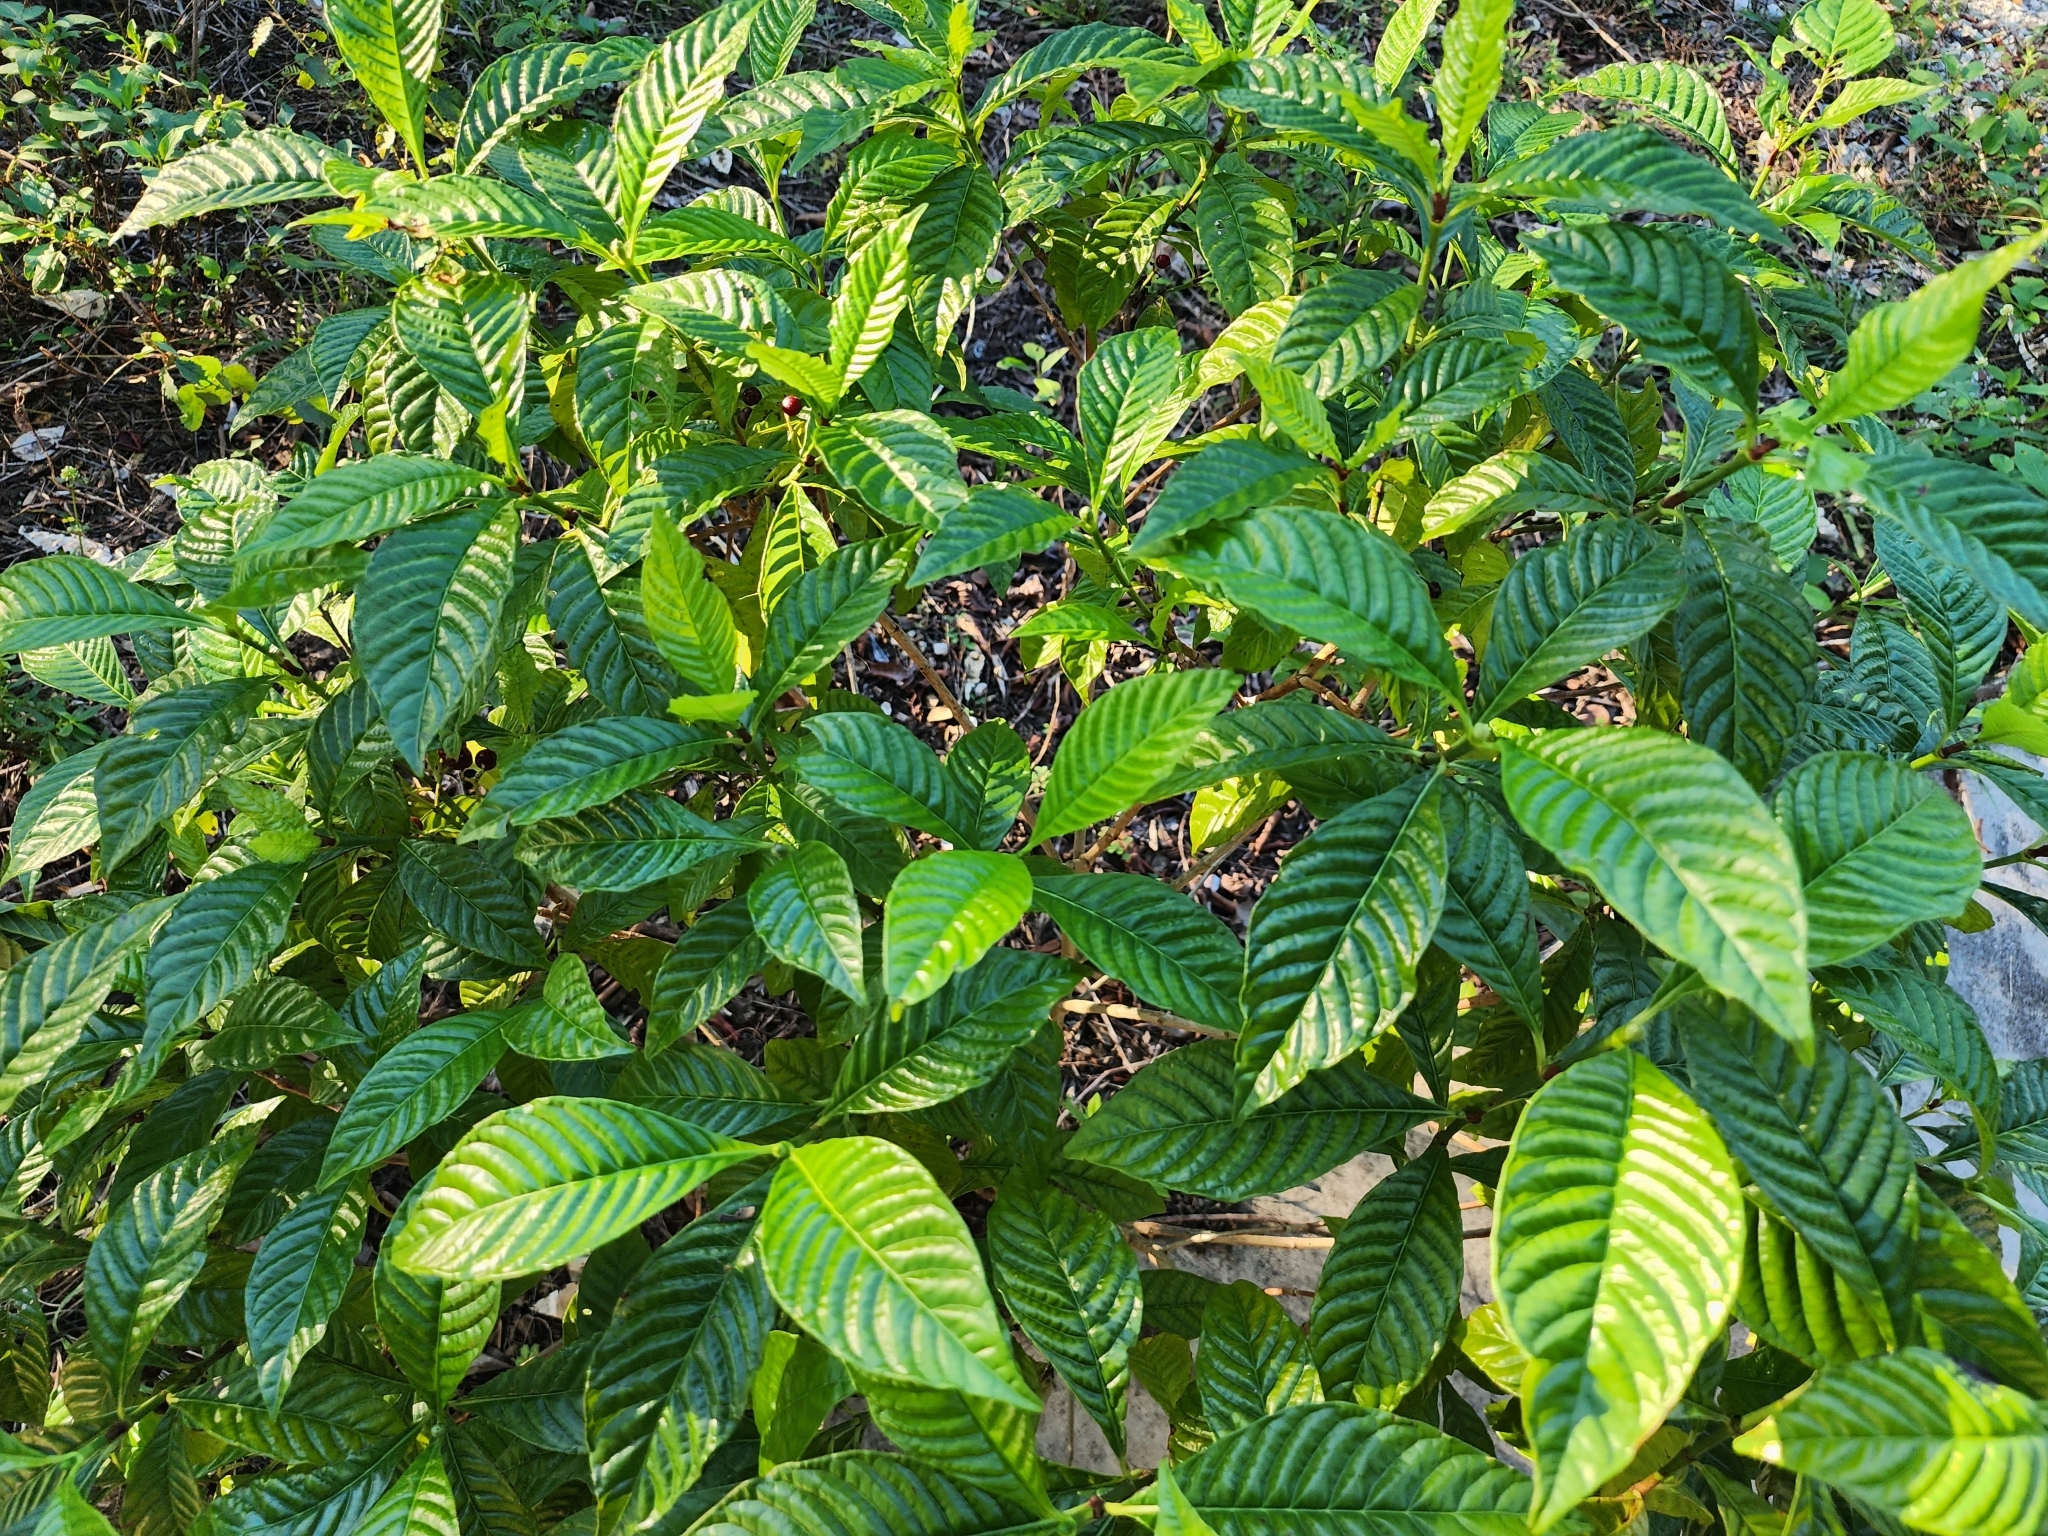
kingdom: Plantae
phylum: Tracheophyta
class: Magnoliopsida
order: Gentianales
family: Rubiaceae
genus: Psychotria
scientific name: Psychotria nervosa
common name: Bastard cankerberry
